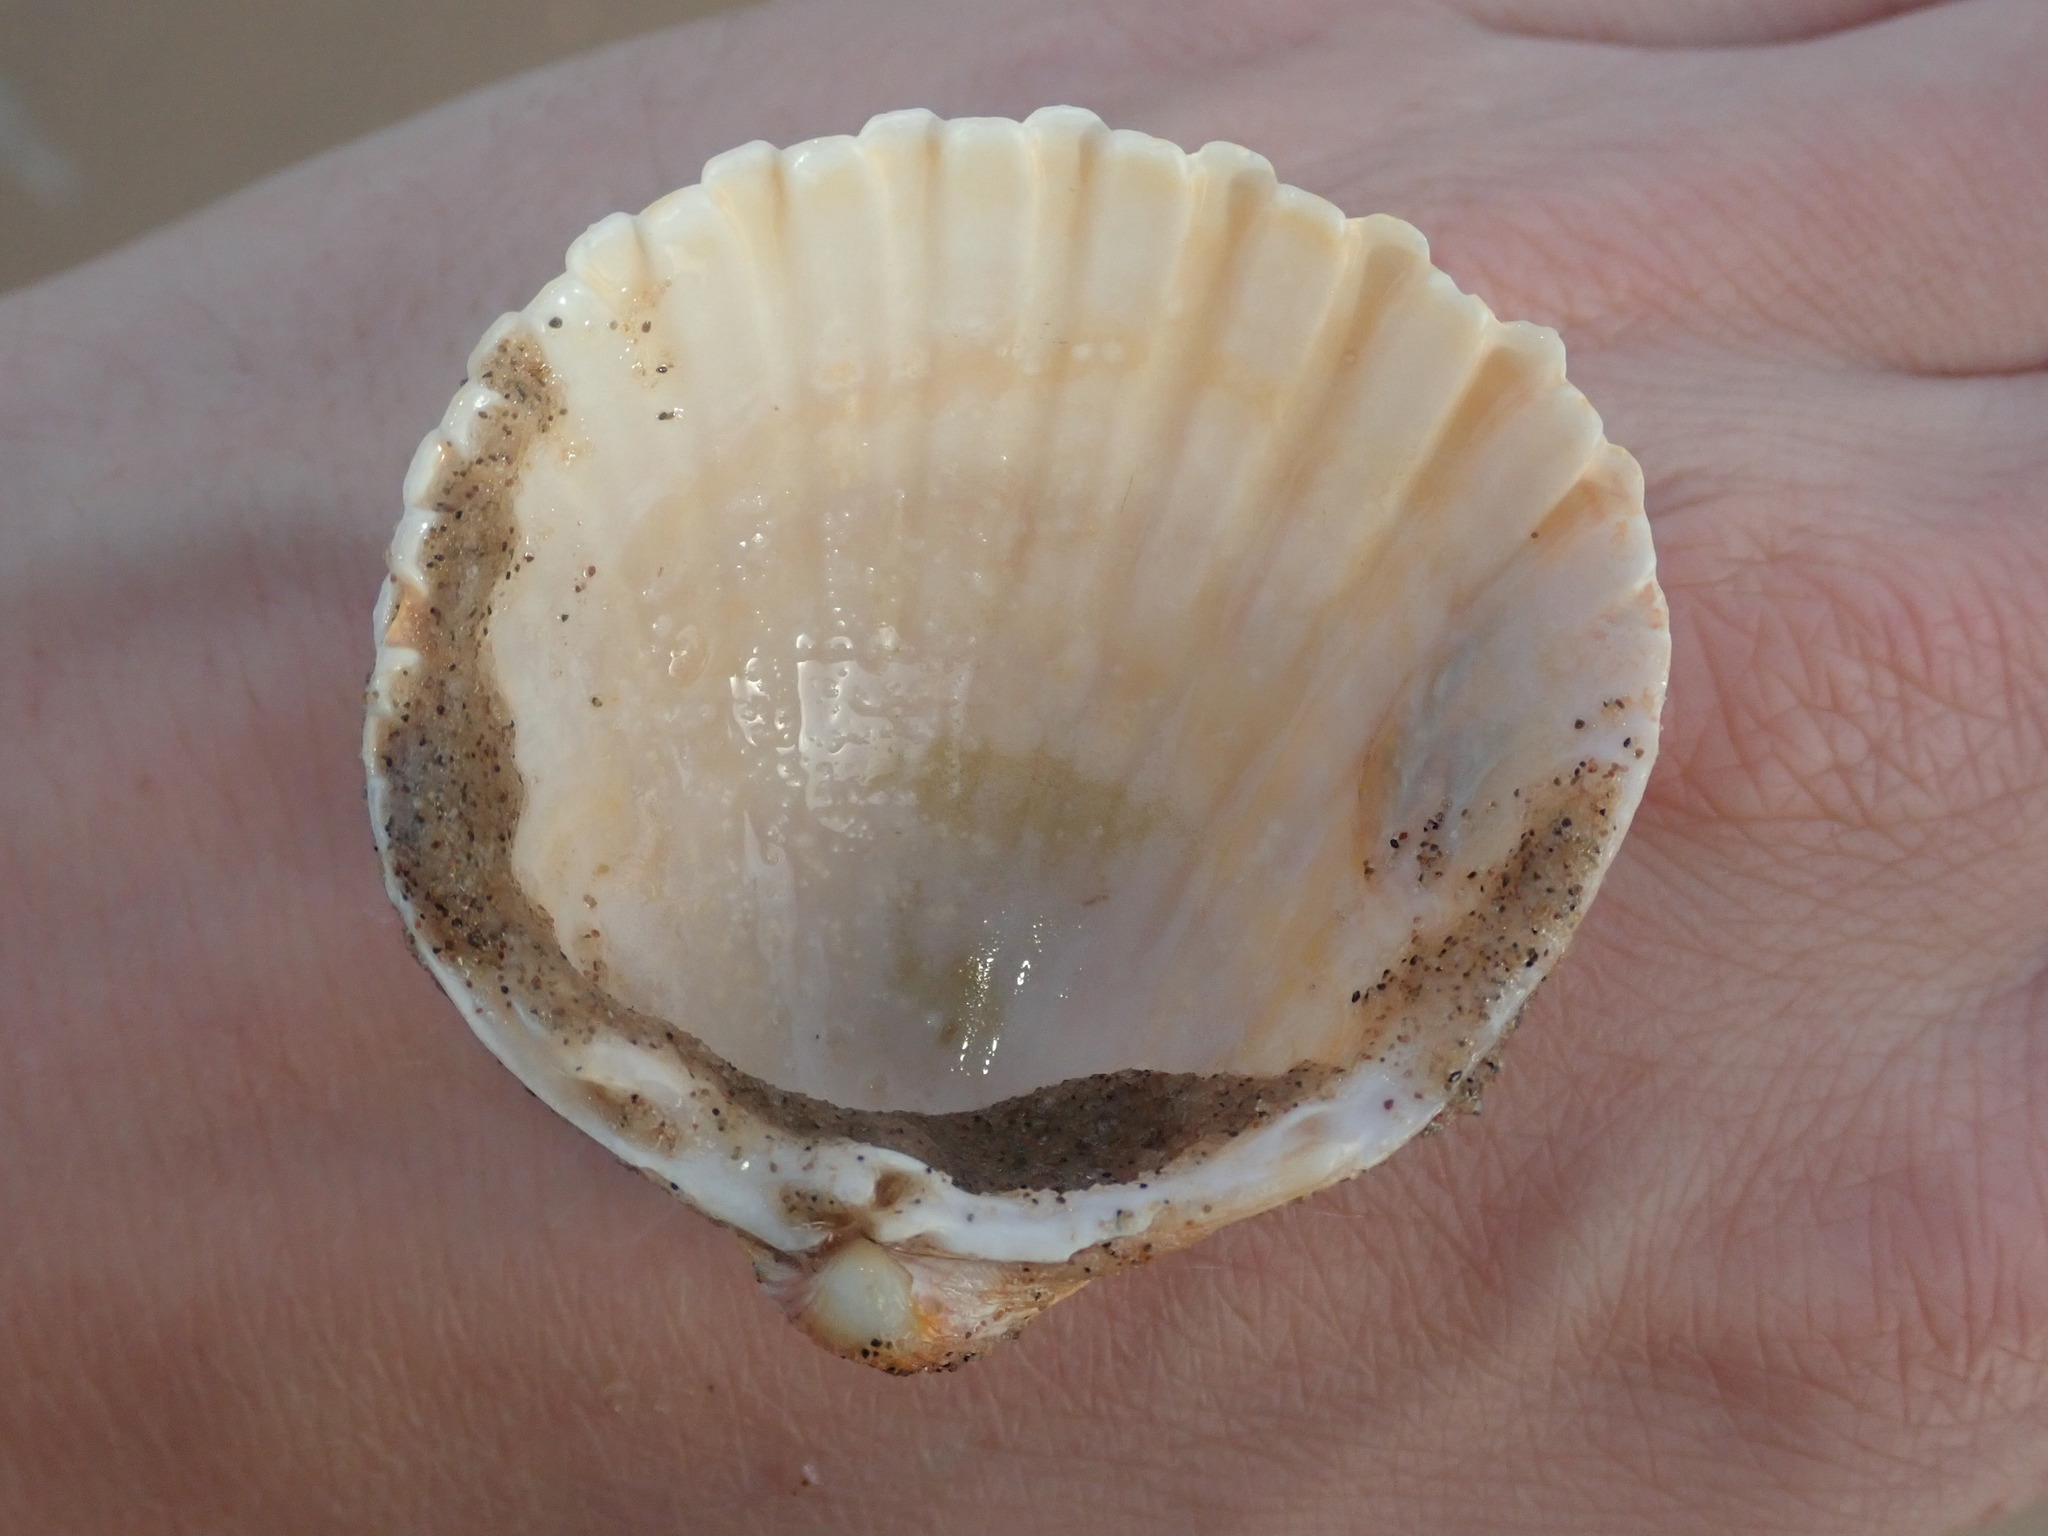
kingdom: Animalia
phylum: Mollusca
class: Bivalvia
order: Cardiida
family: Cardiidae
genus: Acanthocardia
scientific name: Acanthocardia echinata
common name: Prickly cockle
